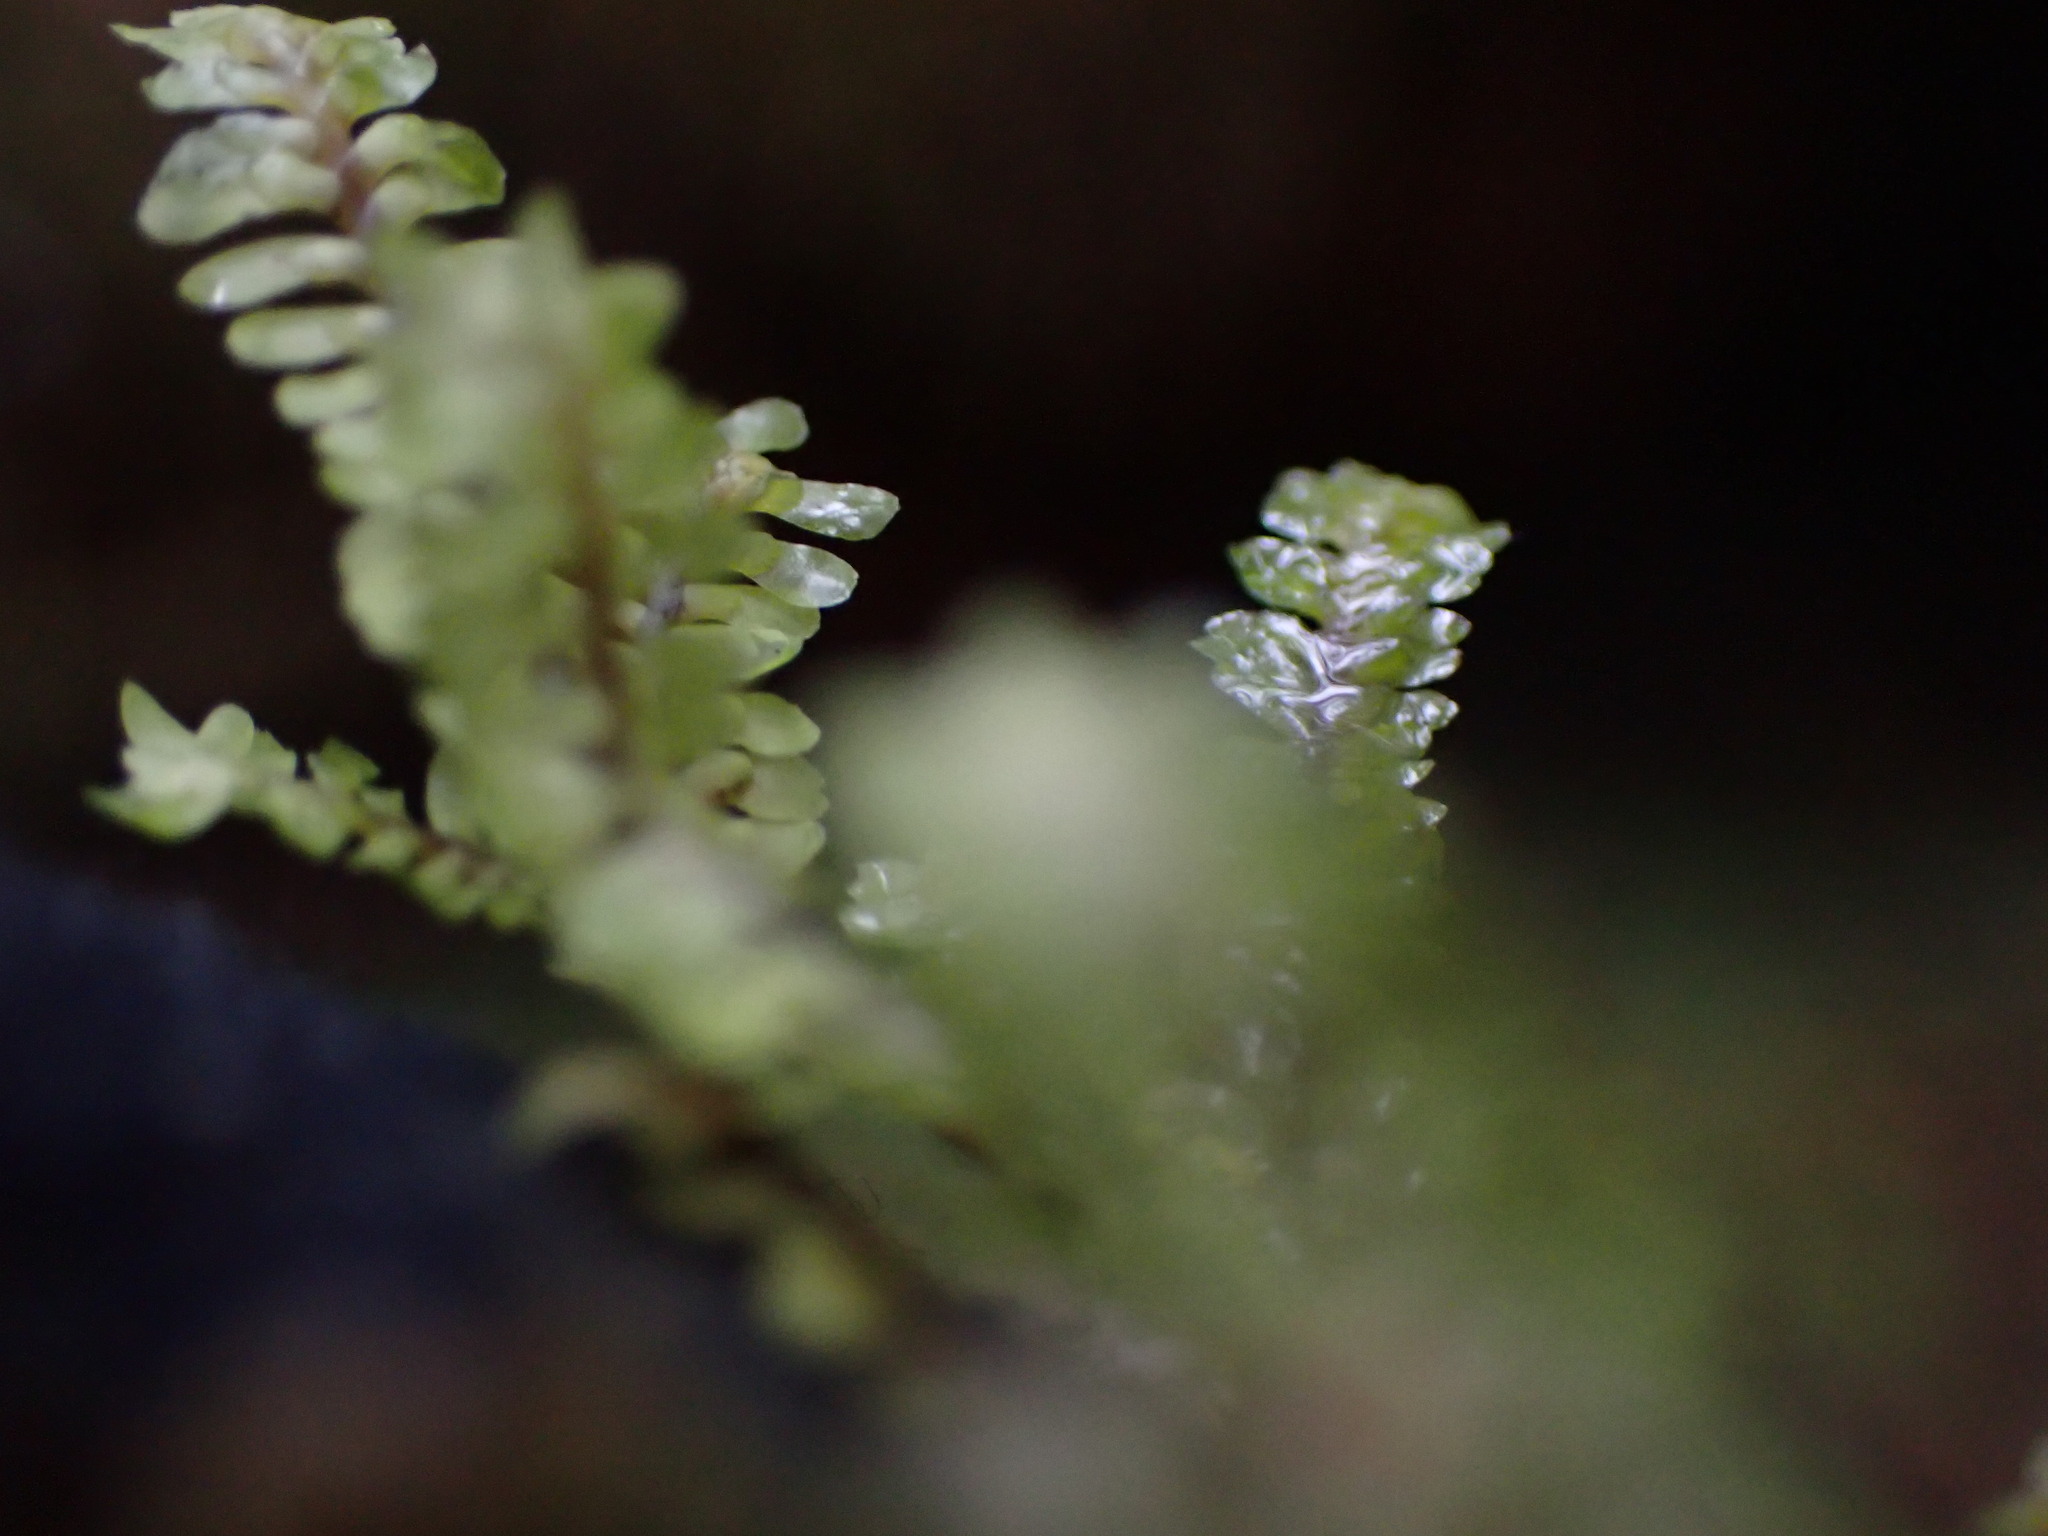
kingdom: Plantae
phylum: Marchantiophyta
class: Jungermanniopsida
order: Jungermanniales
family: Scapaniaceae
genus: Macrodiplophyllum
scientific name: Macrodiplophyllum rubrum
